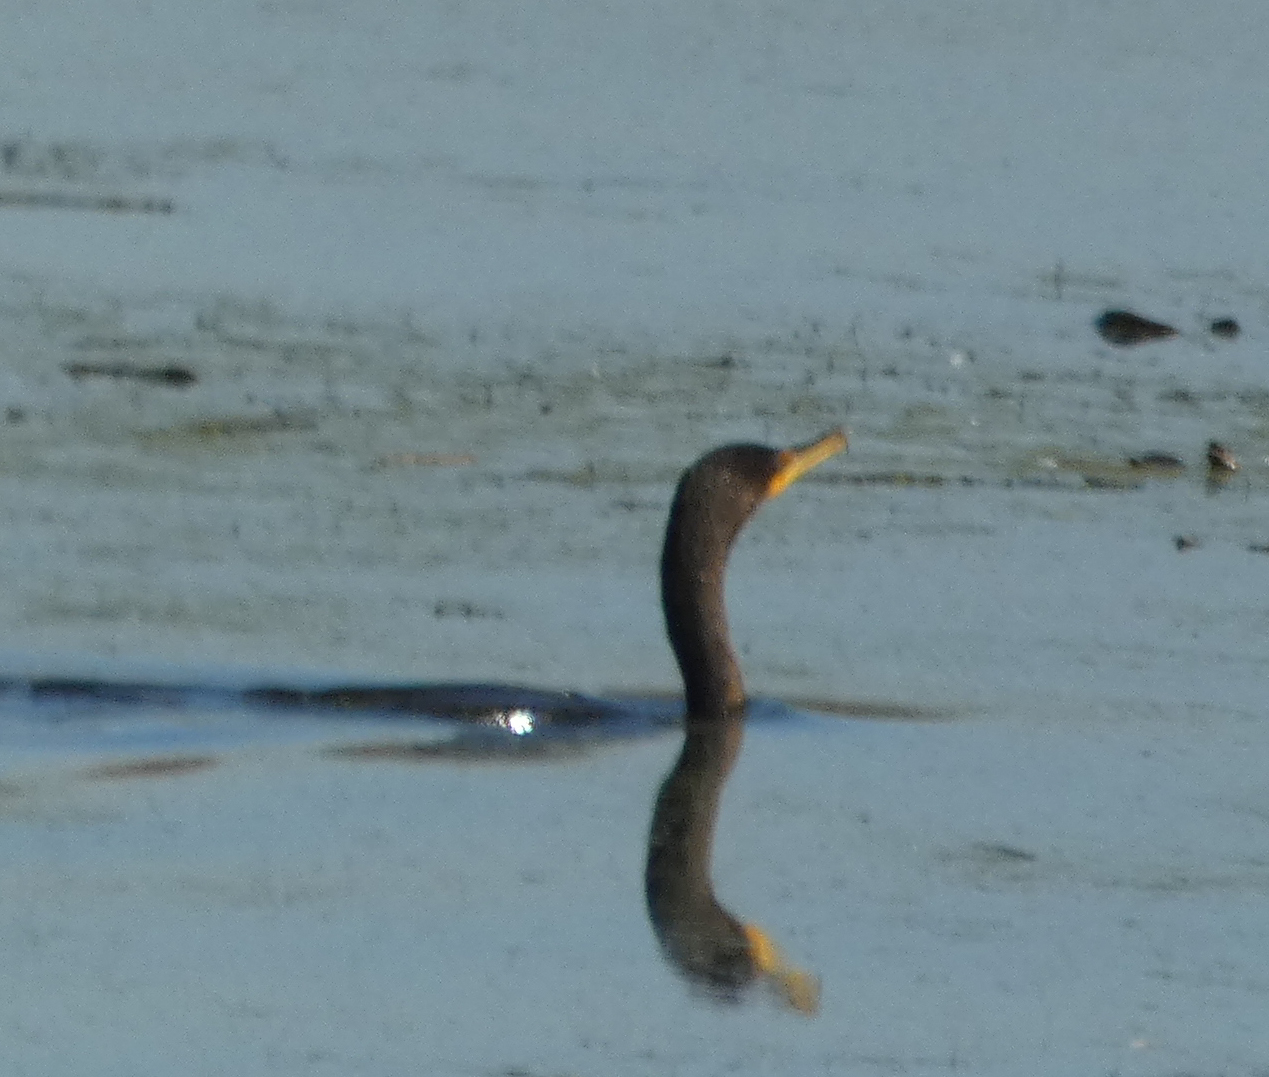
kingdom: Animalia
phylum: Chordata
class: Aves
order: Suliformes
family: Phalacrocoracidae
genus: Phalacrocorax
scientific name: Phalacrocorax auritus
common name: Double-crested cormorant
